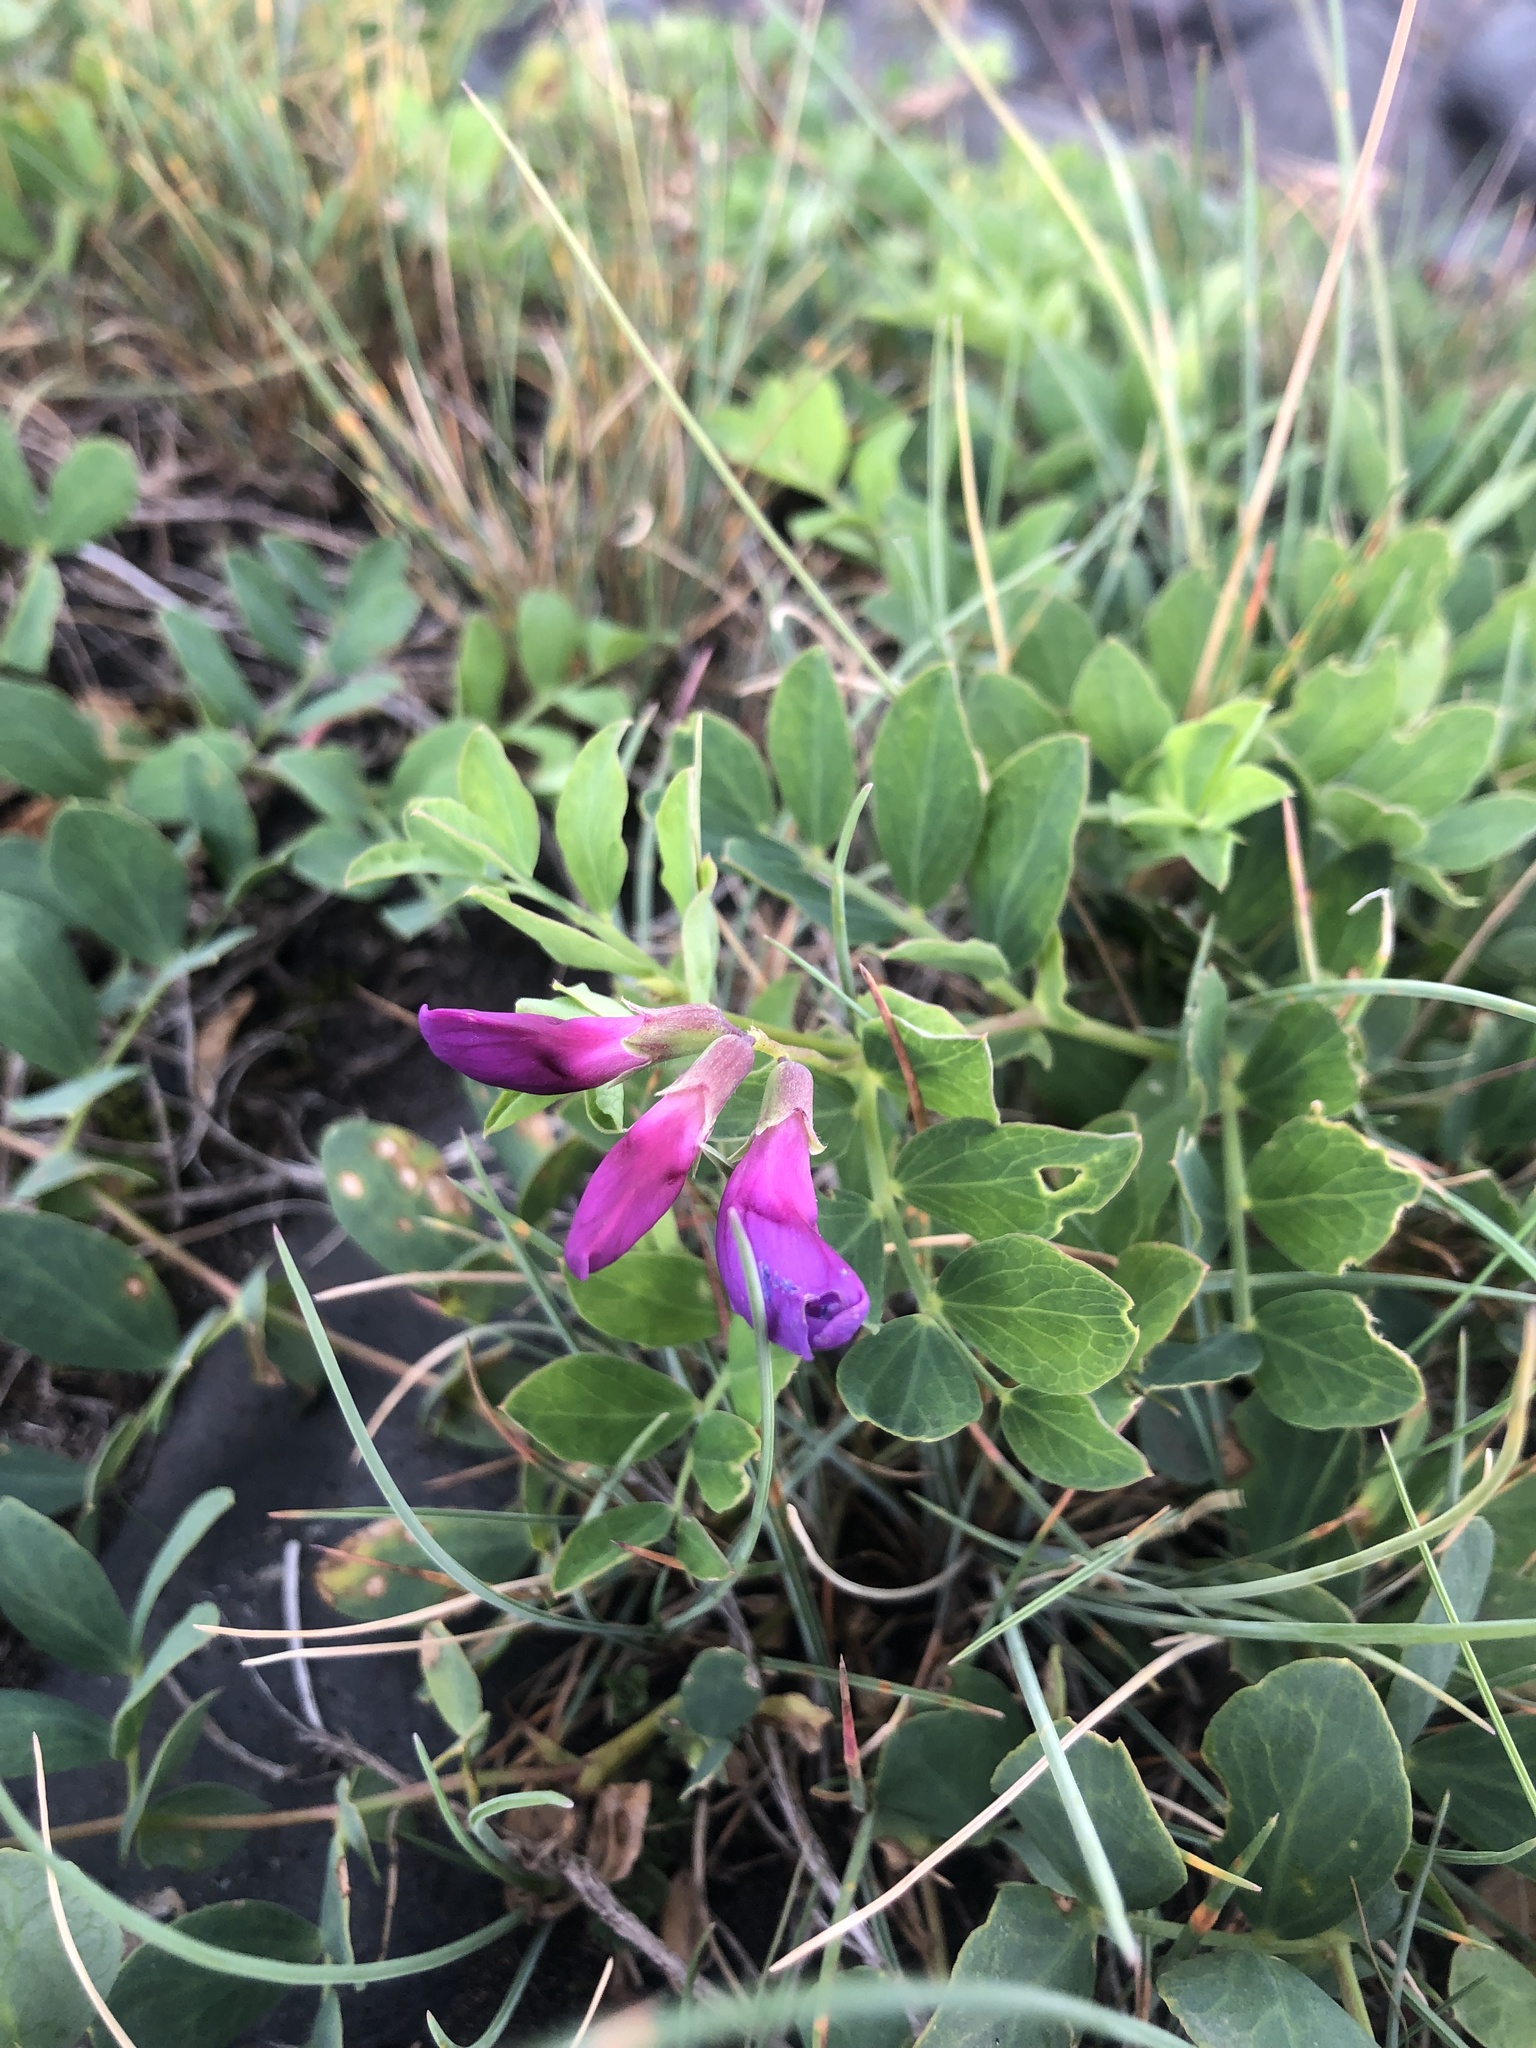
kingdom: Plantae
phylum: Tracheophyta
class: Magnoliopsida
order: Fabales
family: Fabaceae
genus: Lathyrus
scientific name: Lathyrus japonicus
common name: Sea pea
